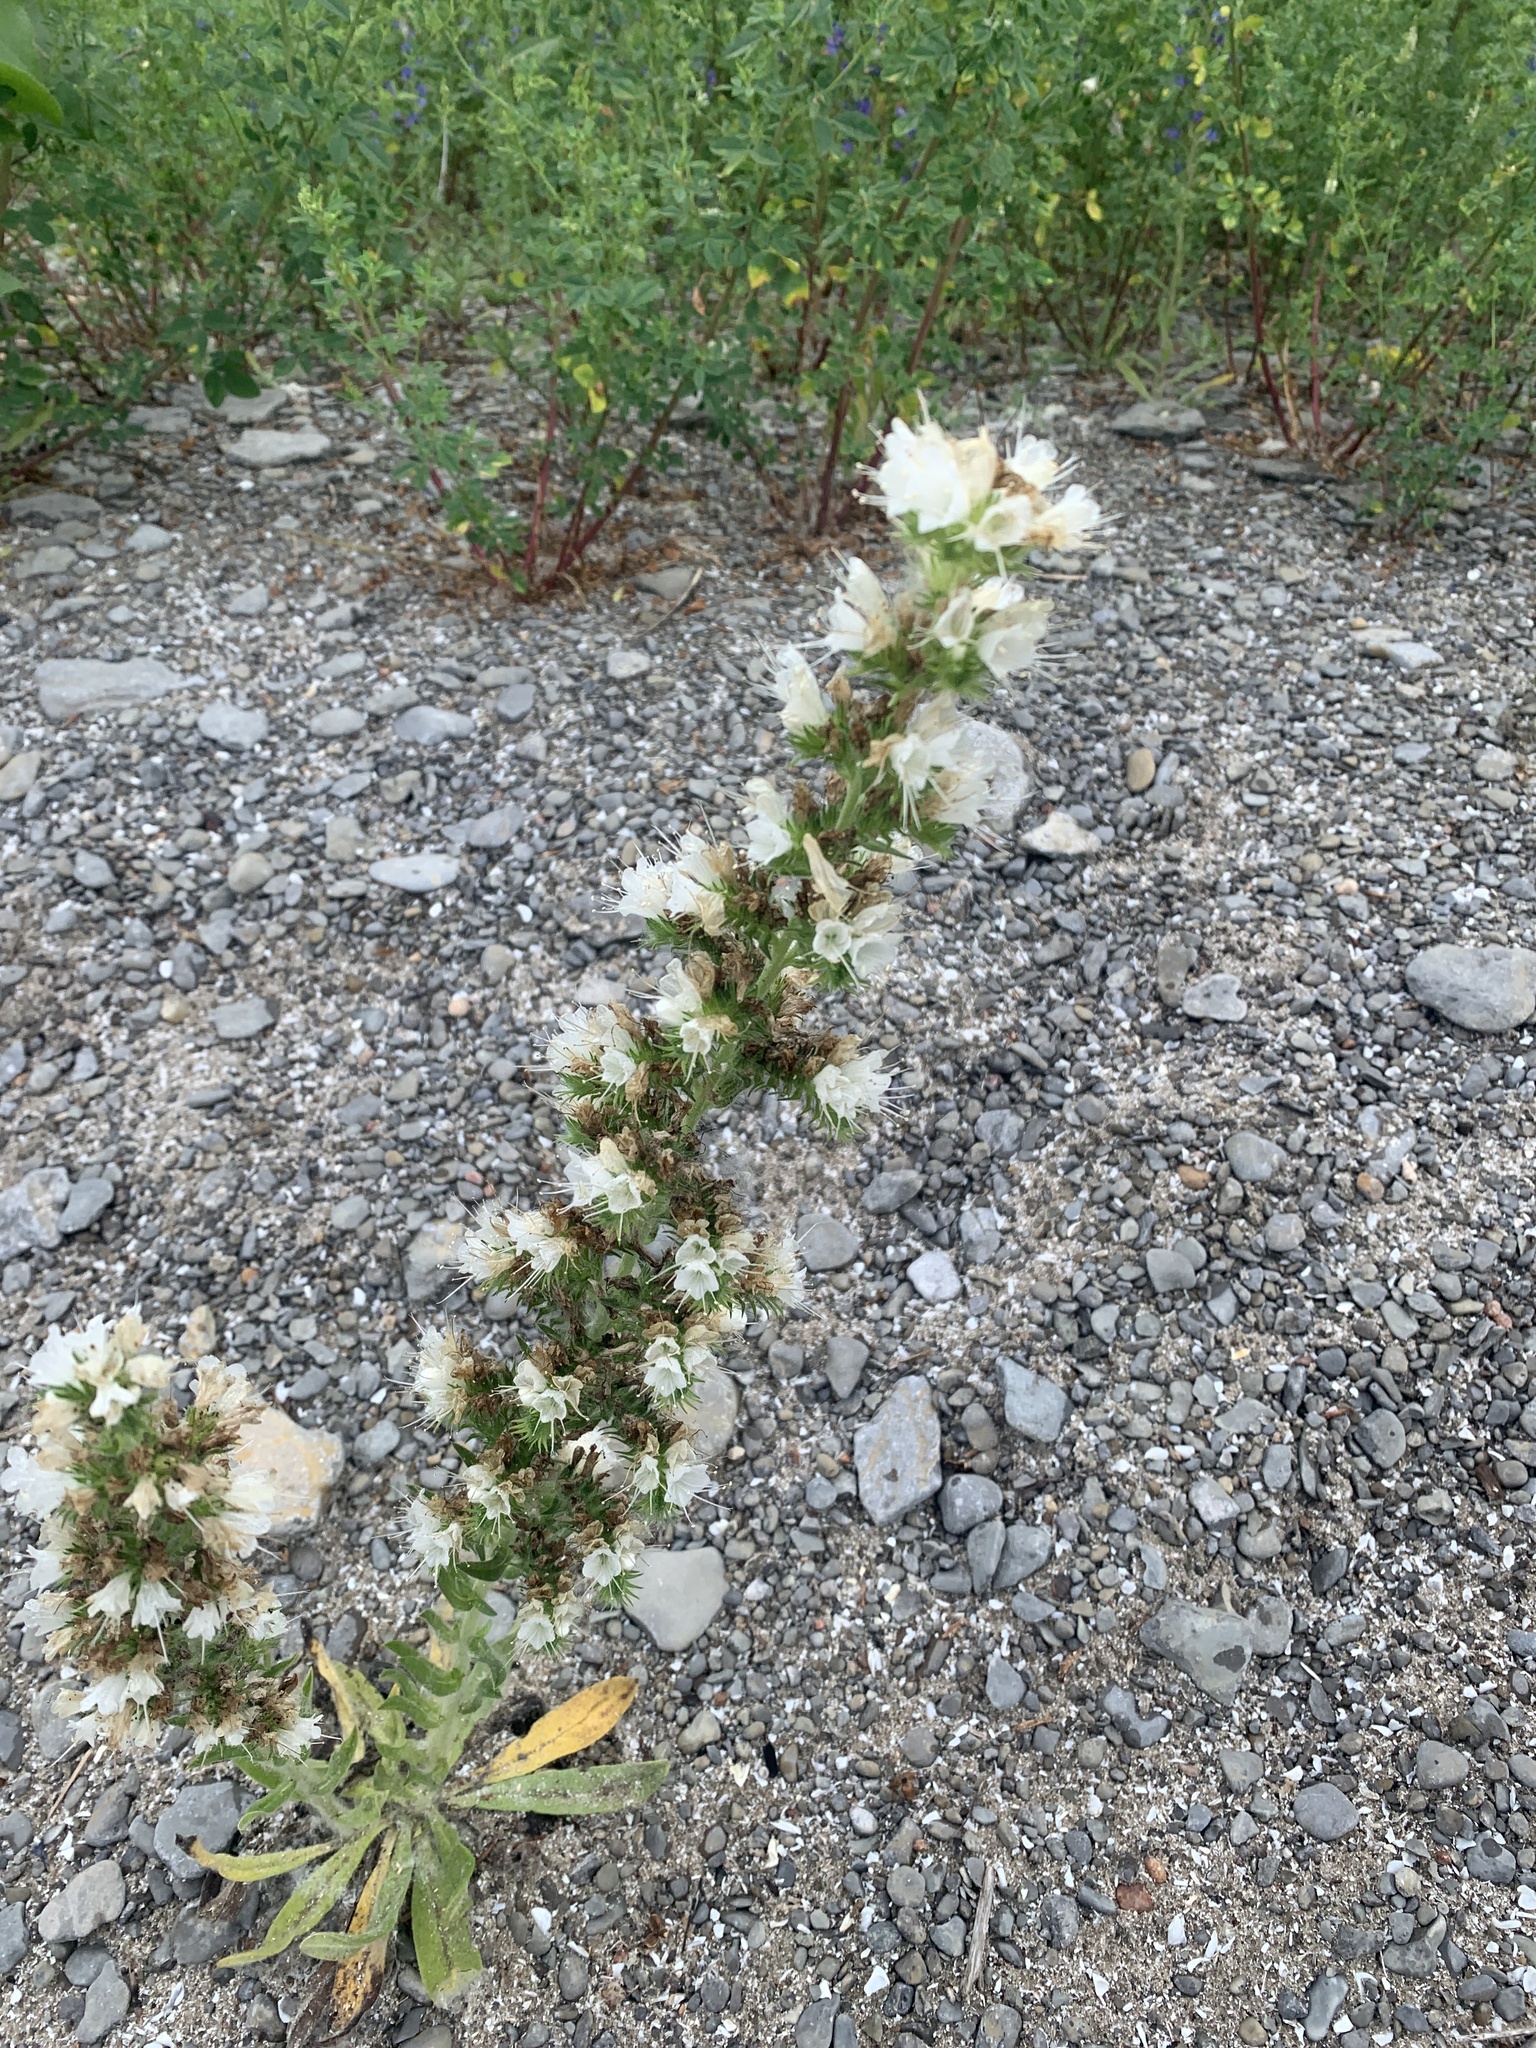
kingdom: Plantae
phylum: Tracheophyta
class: Magnoliopsida
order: Boraginales
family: Boraginaceae
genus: Echium
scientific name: Echium vulgare
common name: Common viper's bugloss
